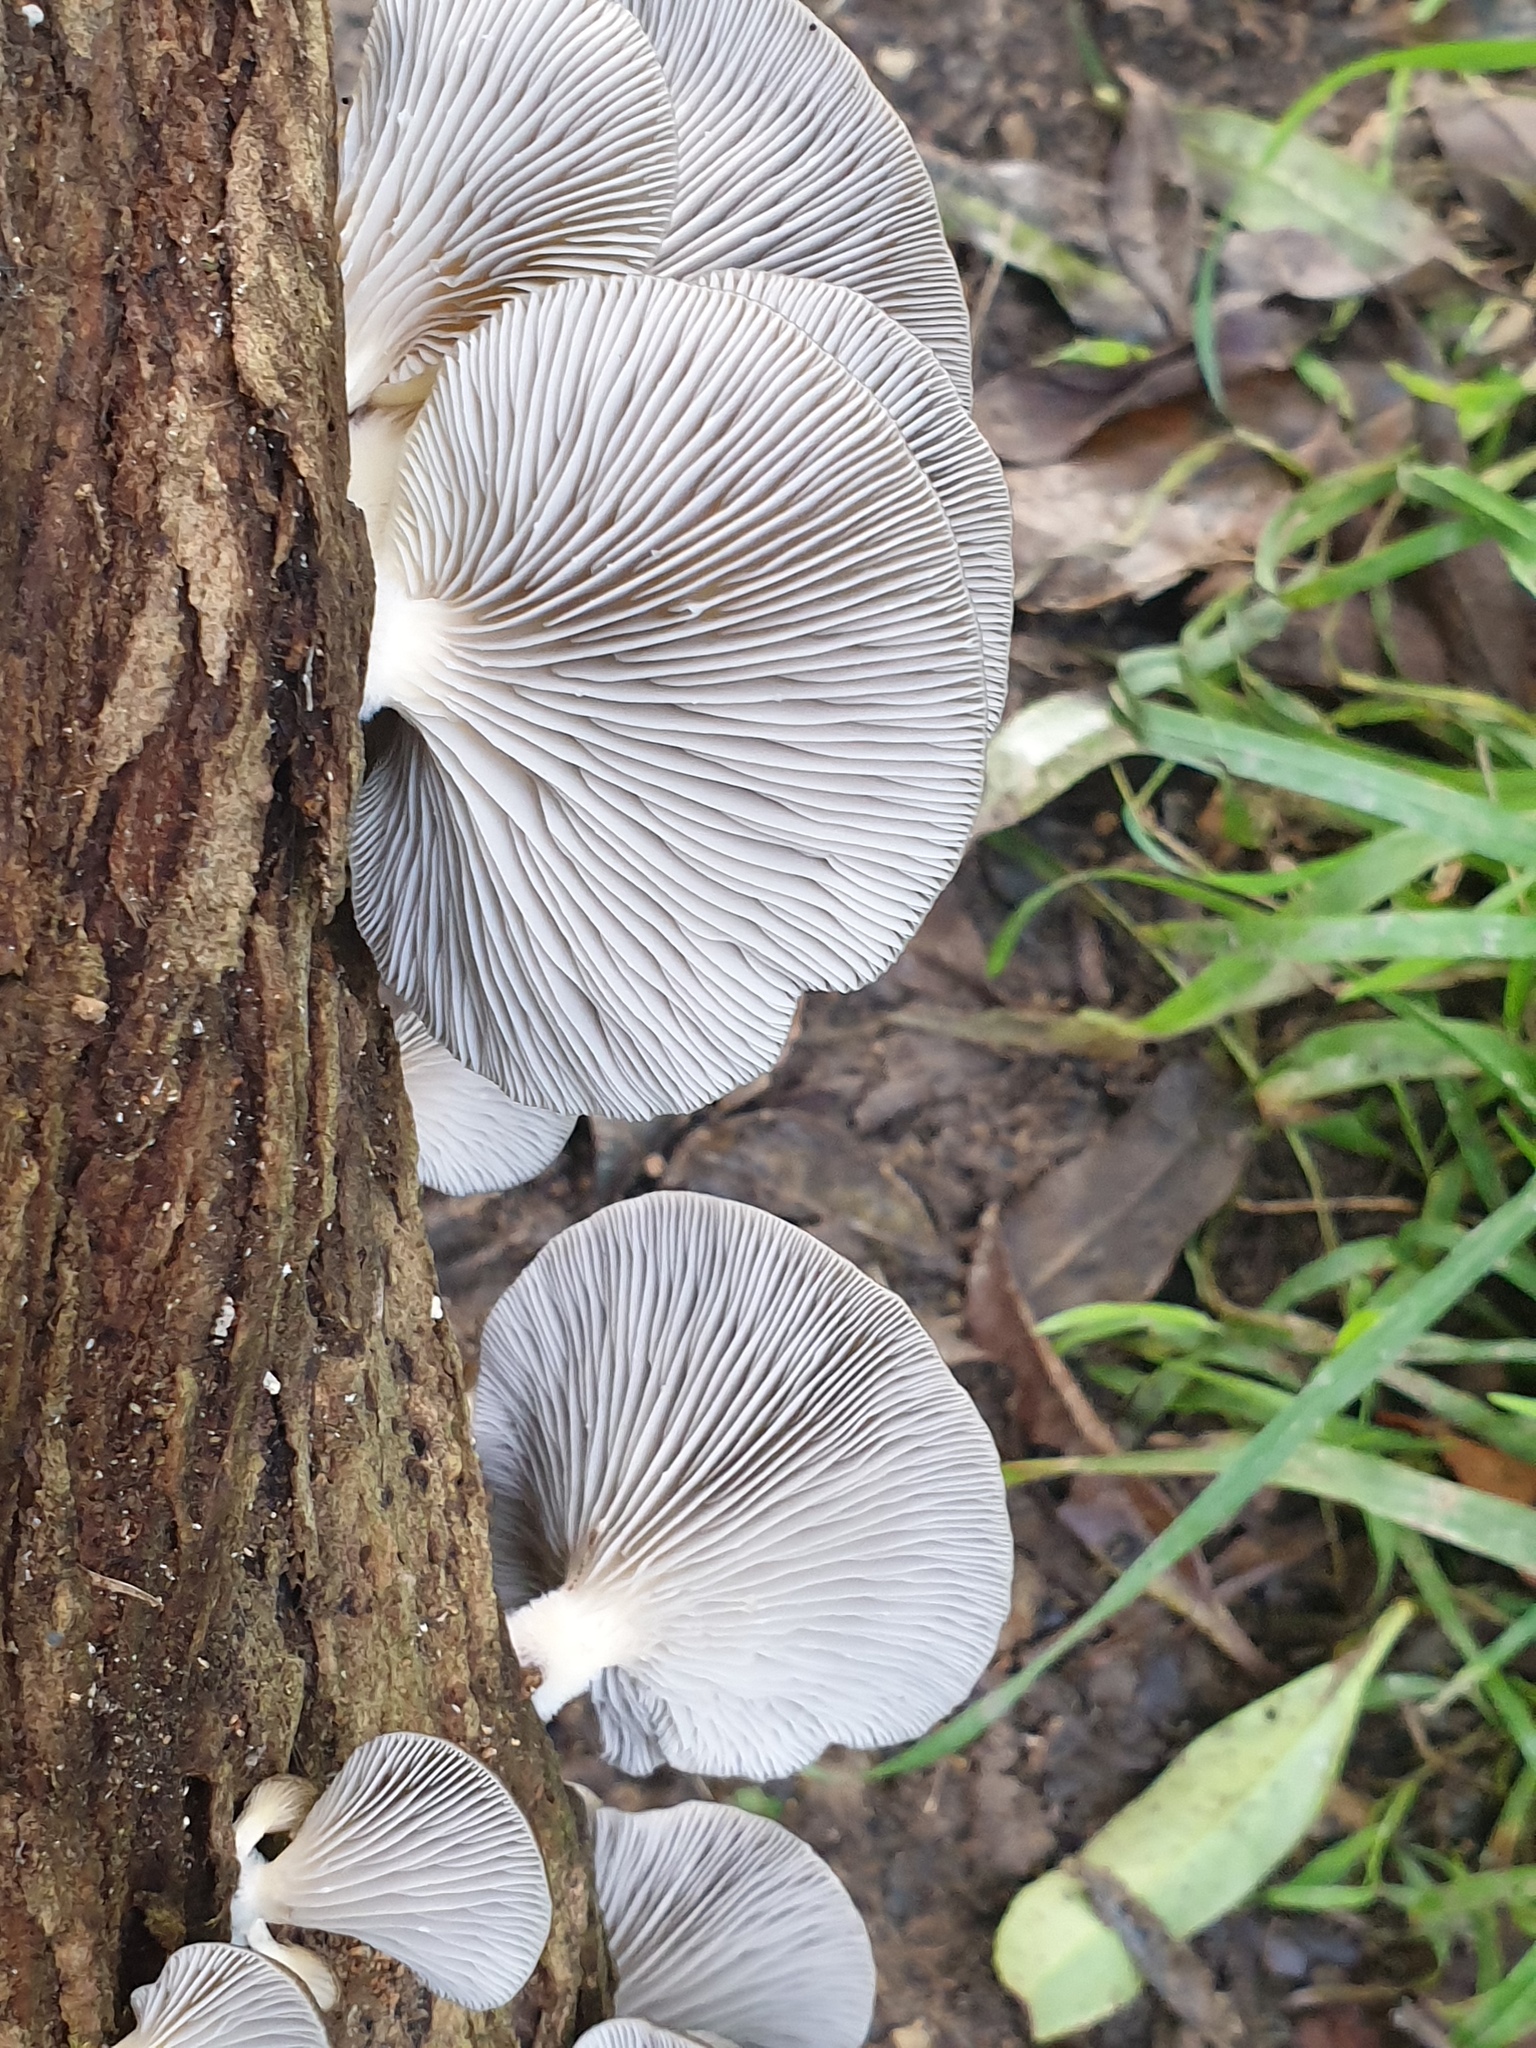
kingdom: Fungi
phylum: Basidiomycota
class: Agaricomycetes
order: Agaricales
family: Pleurotaceae
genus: Pleurotus
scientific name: Pleurotus purpureo-olivaceus
